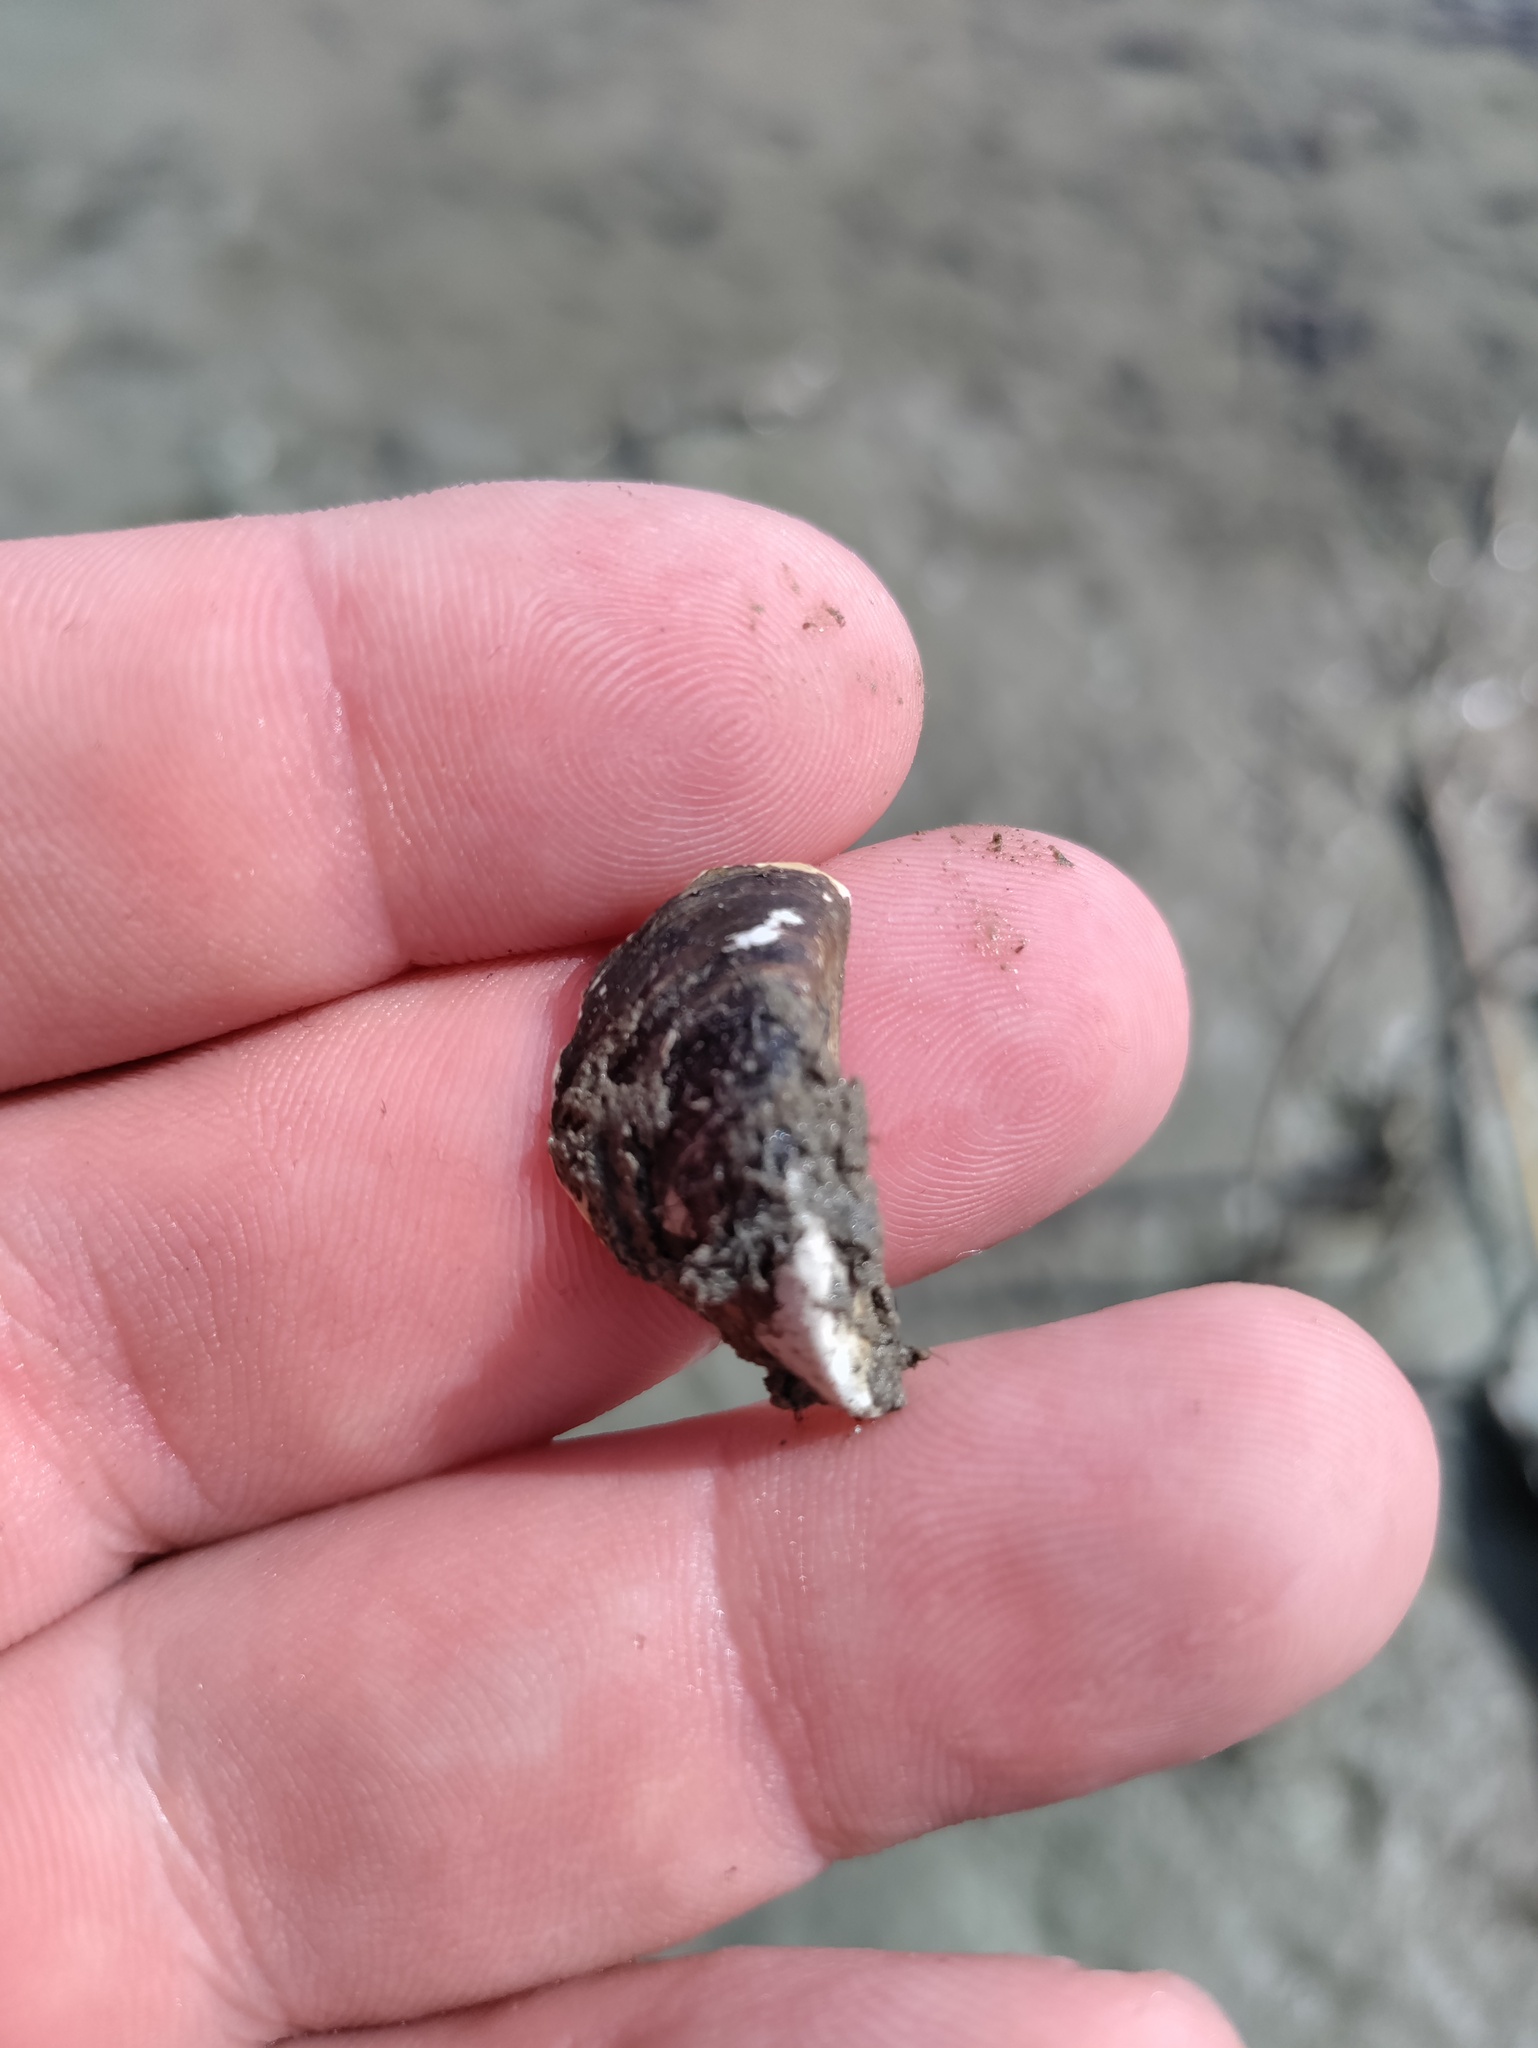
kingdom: Animalia
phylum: Mollusca
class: Bivalvia
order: Myida
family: Dreissenidae
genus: Dreissena
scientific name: Dreissena polymorpha
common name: Zebra mussel
